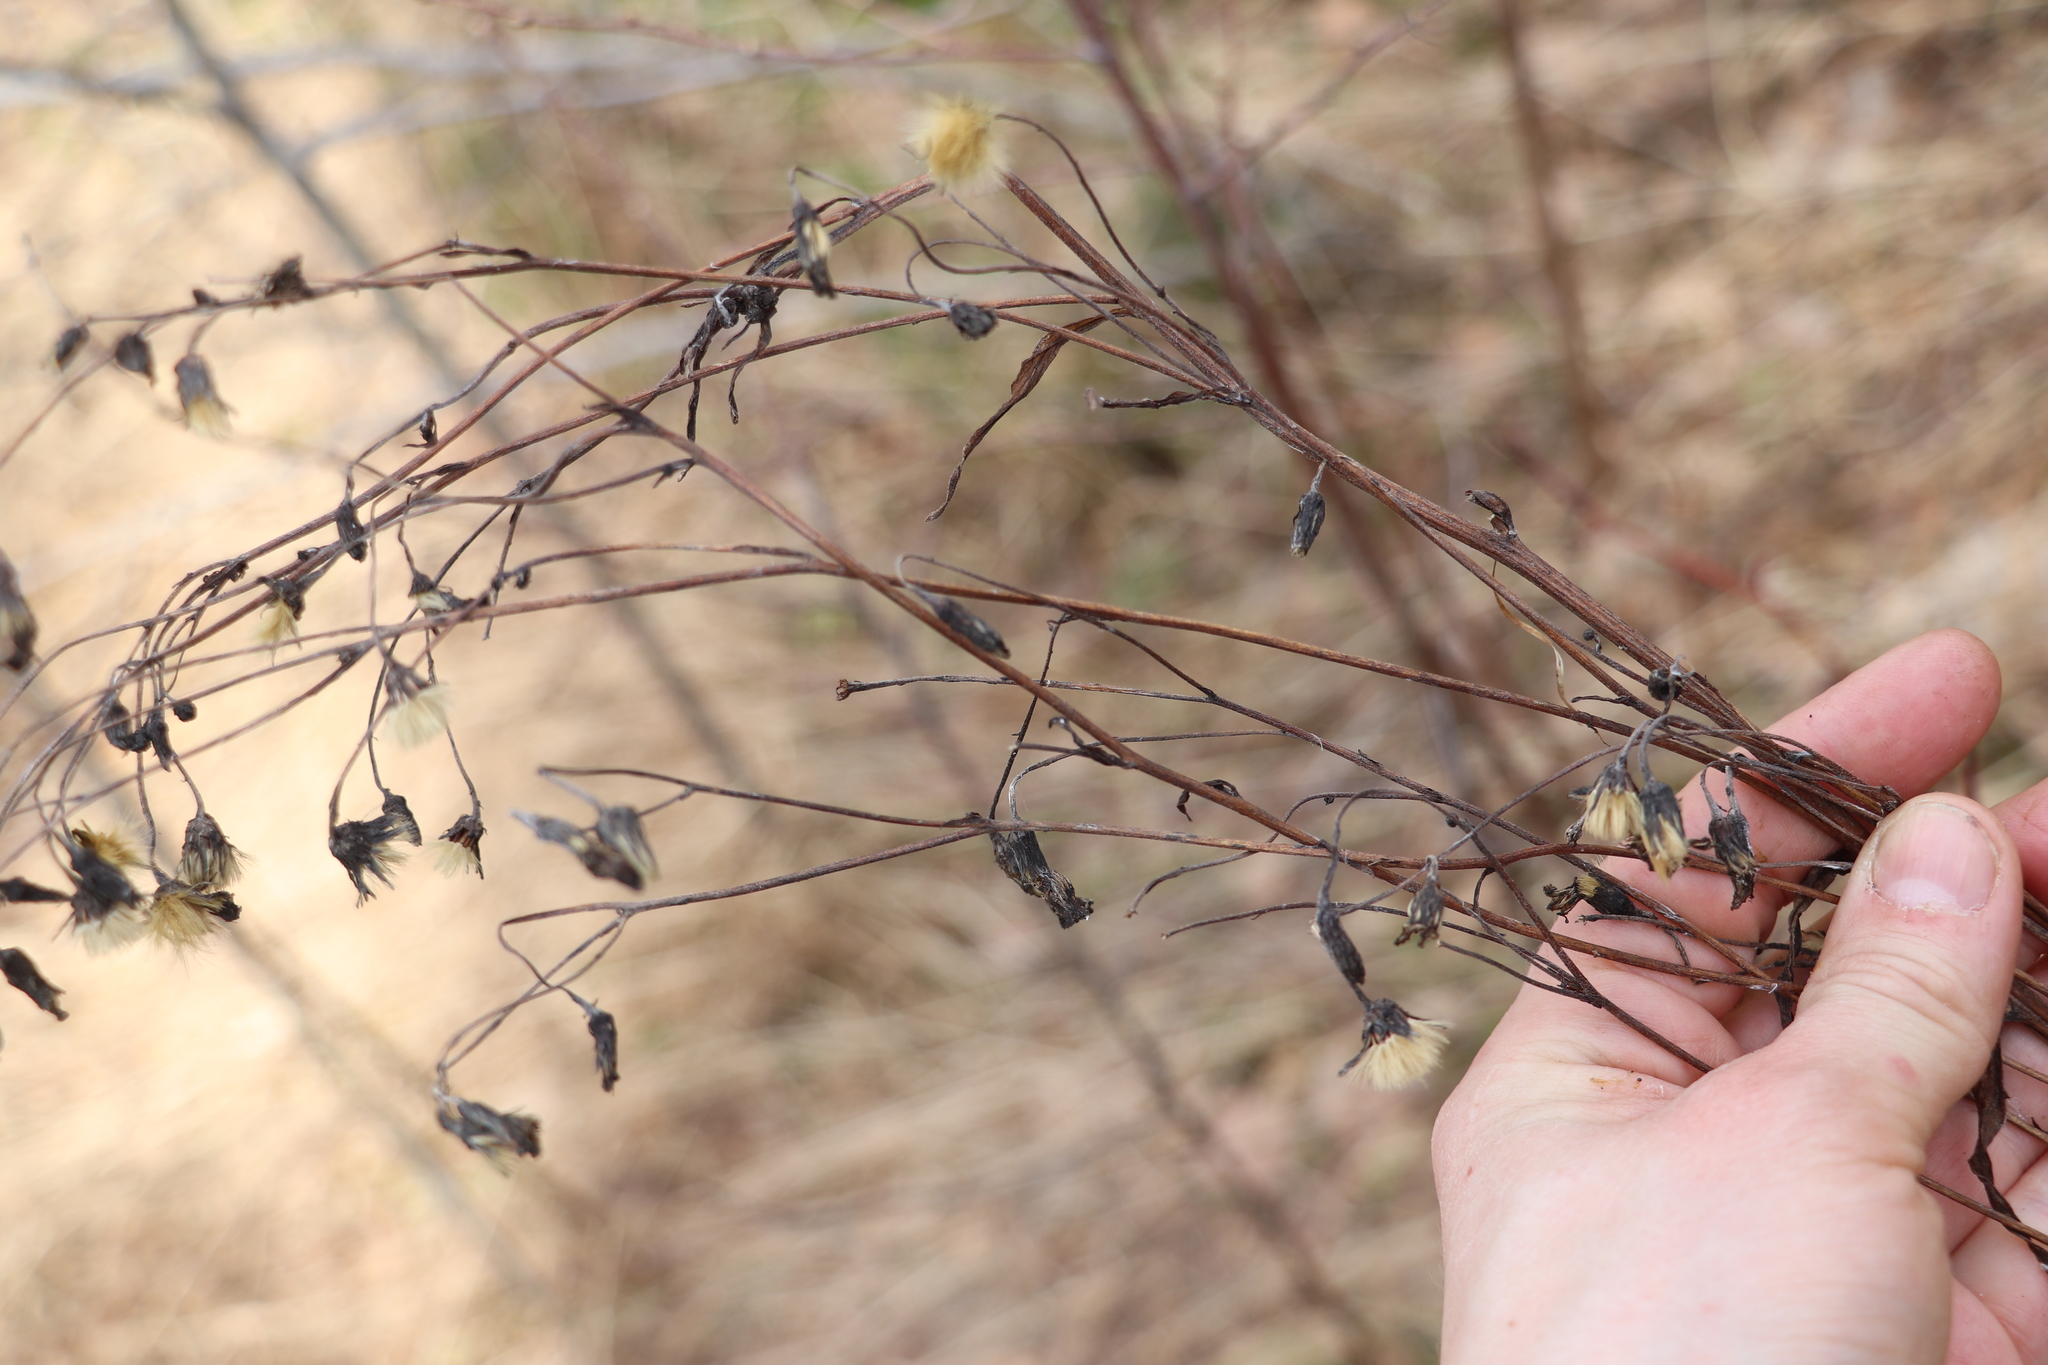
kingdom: Plantae
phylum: Tracheophyta
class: Magnoliopsida
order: Asterales
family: Asteraceae
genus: Lactuca
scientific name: Lactuca sibirica
